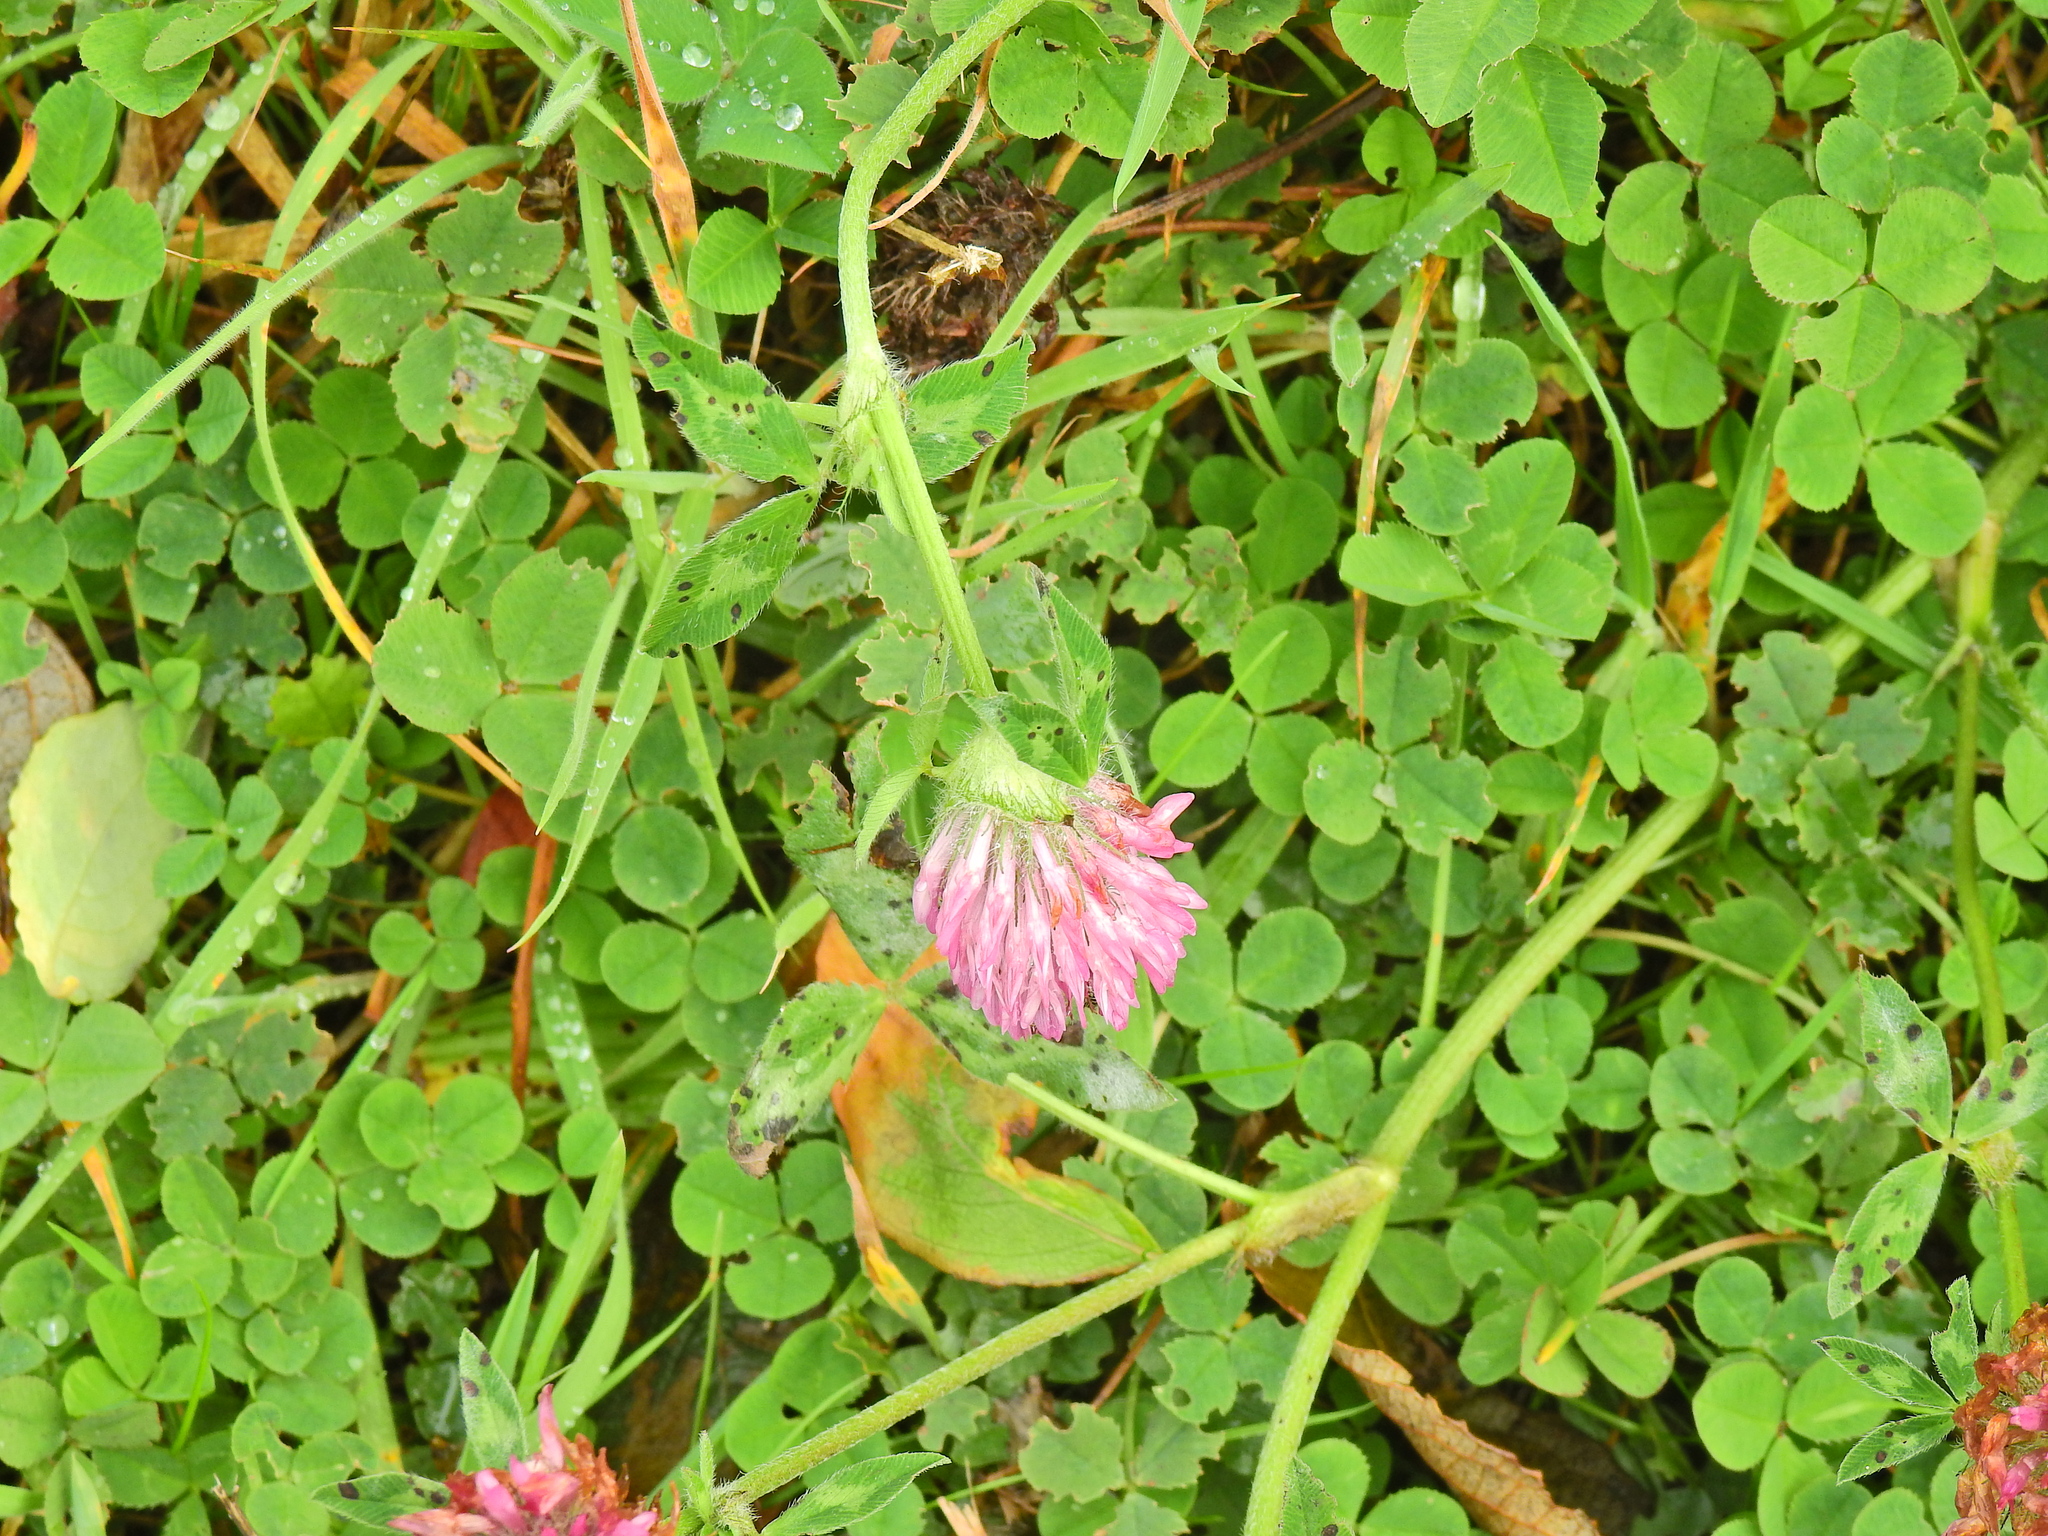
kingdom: Plantae
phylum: Tracheophyta
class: Magnoliopsida
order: Fabales
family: Fabaceae
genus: Trifolium
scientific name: Trifolium pratense
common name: Red clover
